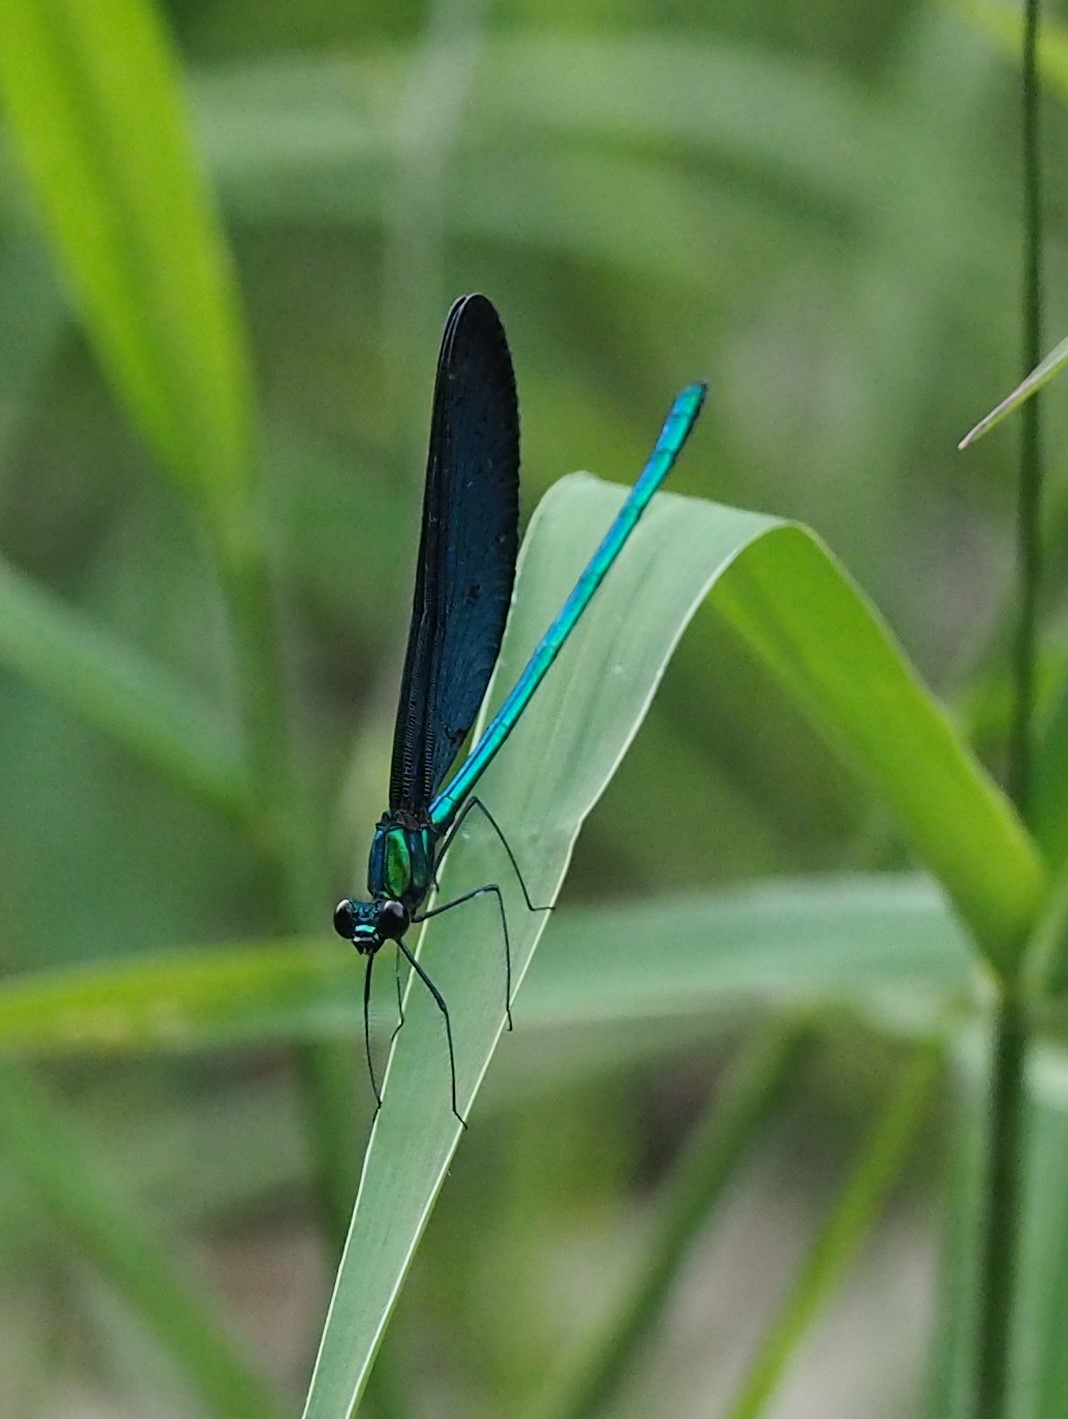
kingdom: Animalia
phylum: Arthropoda
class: Insecta
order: Odonata
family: Calopterygidae
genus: Matrona
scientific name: Matrona cyanoptera
